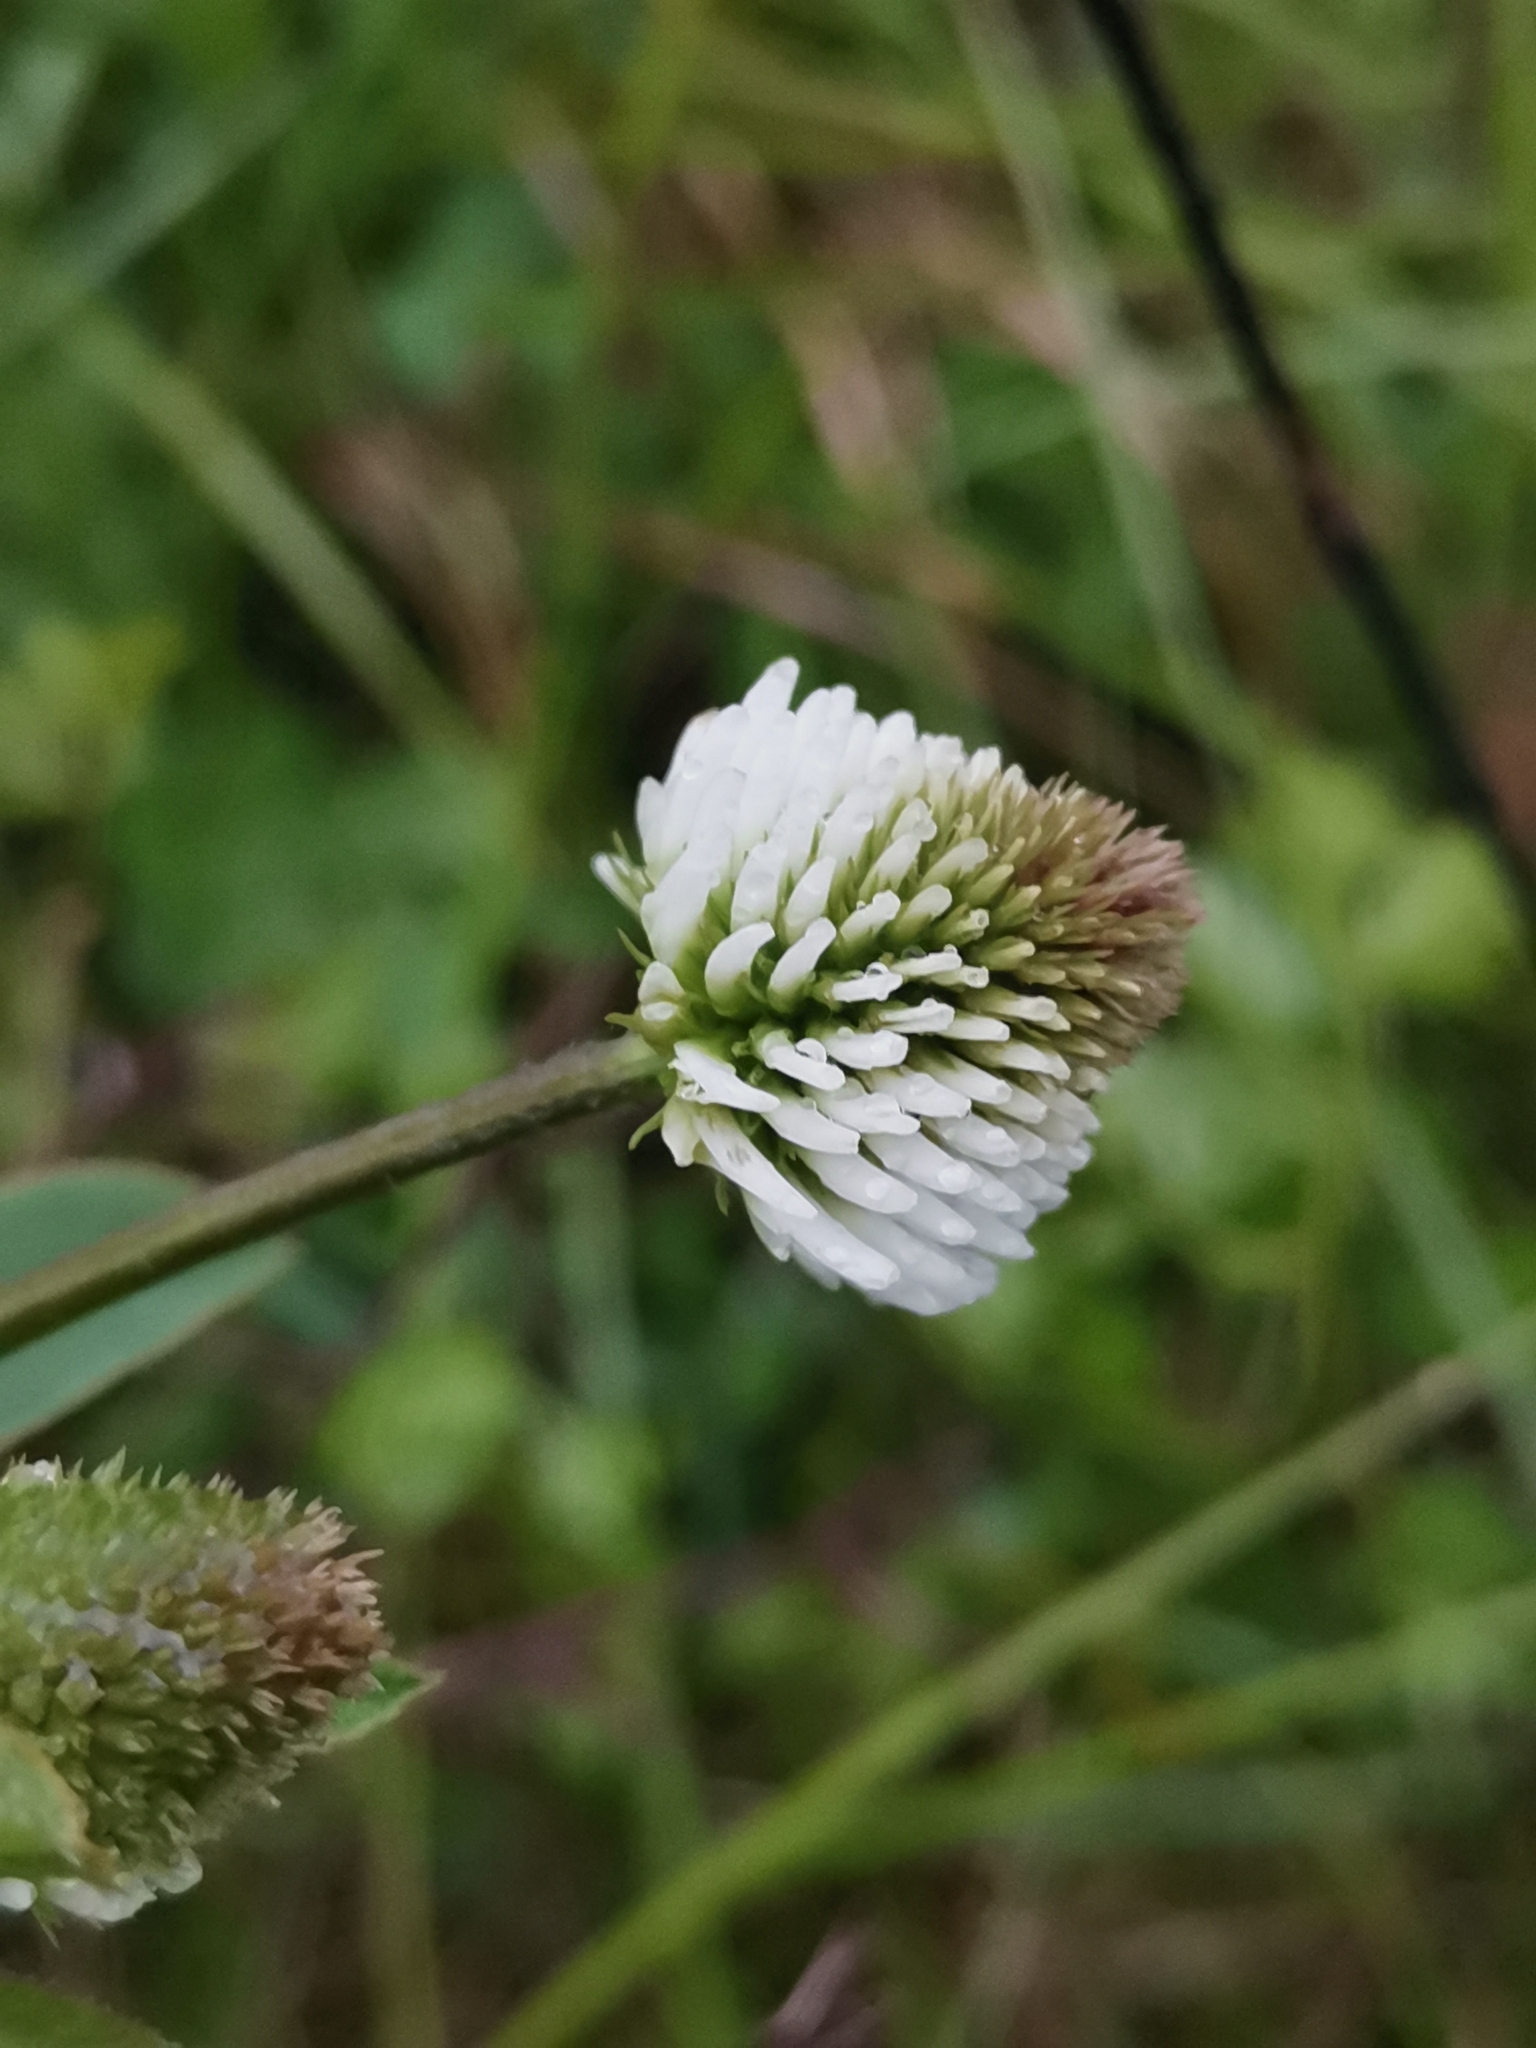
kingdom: Plantae
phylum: Tracheophyta
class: Magnoliopsida
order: Fabales
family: Fabaceae
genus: Trifolium
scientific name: Trifolium montanum
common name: Mountain clover
